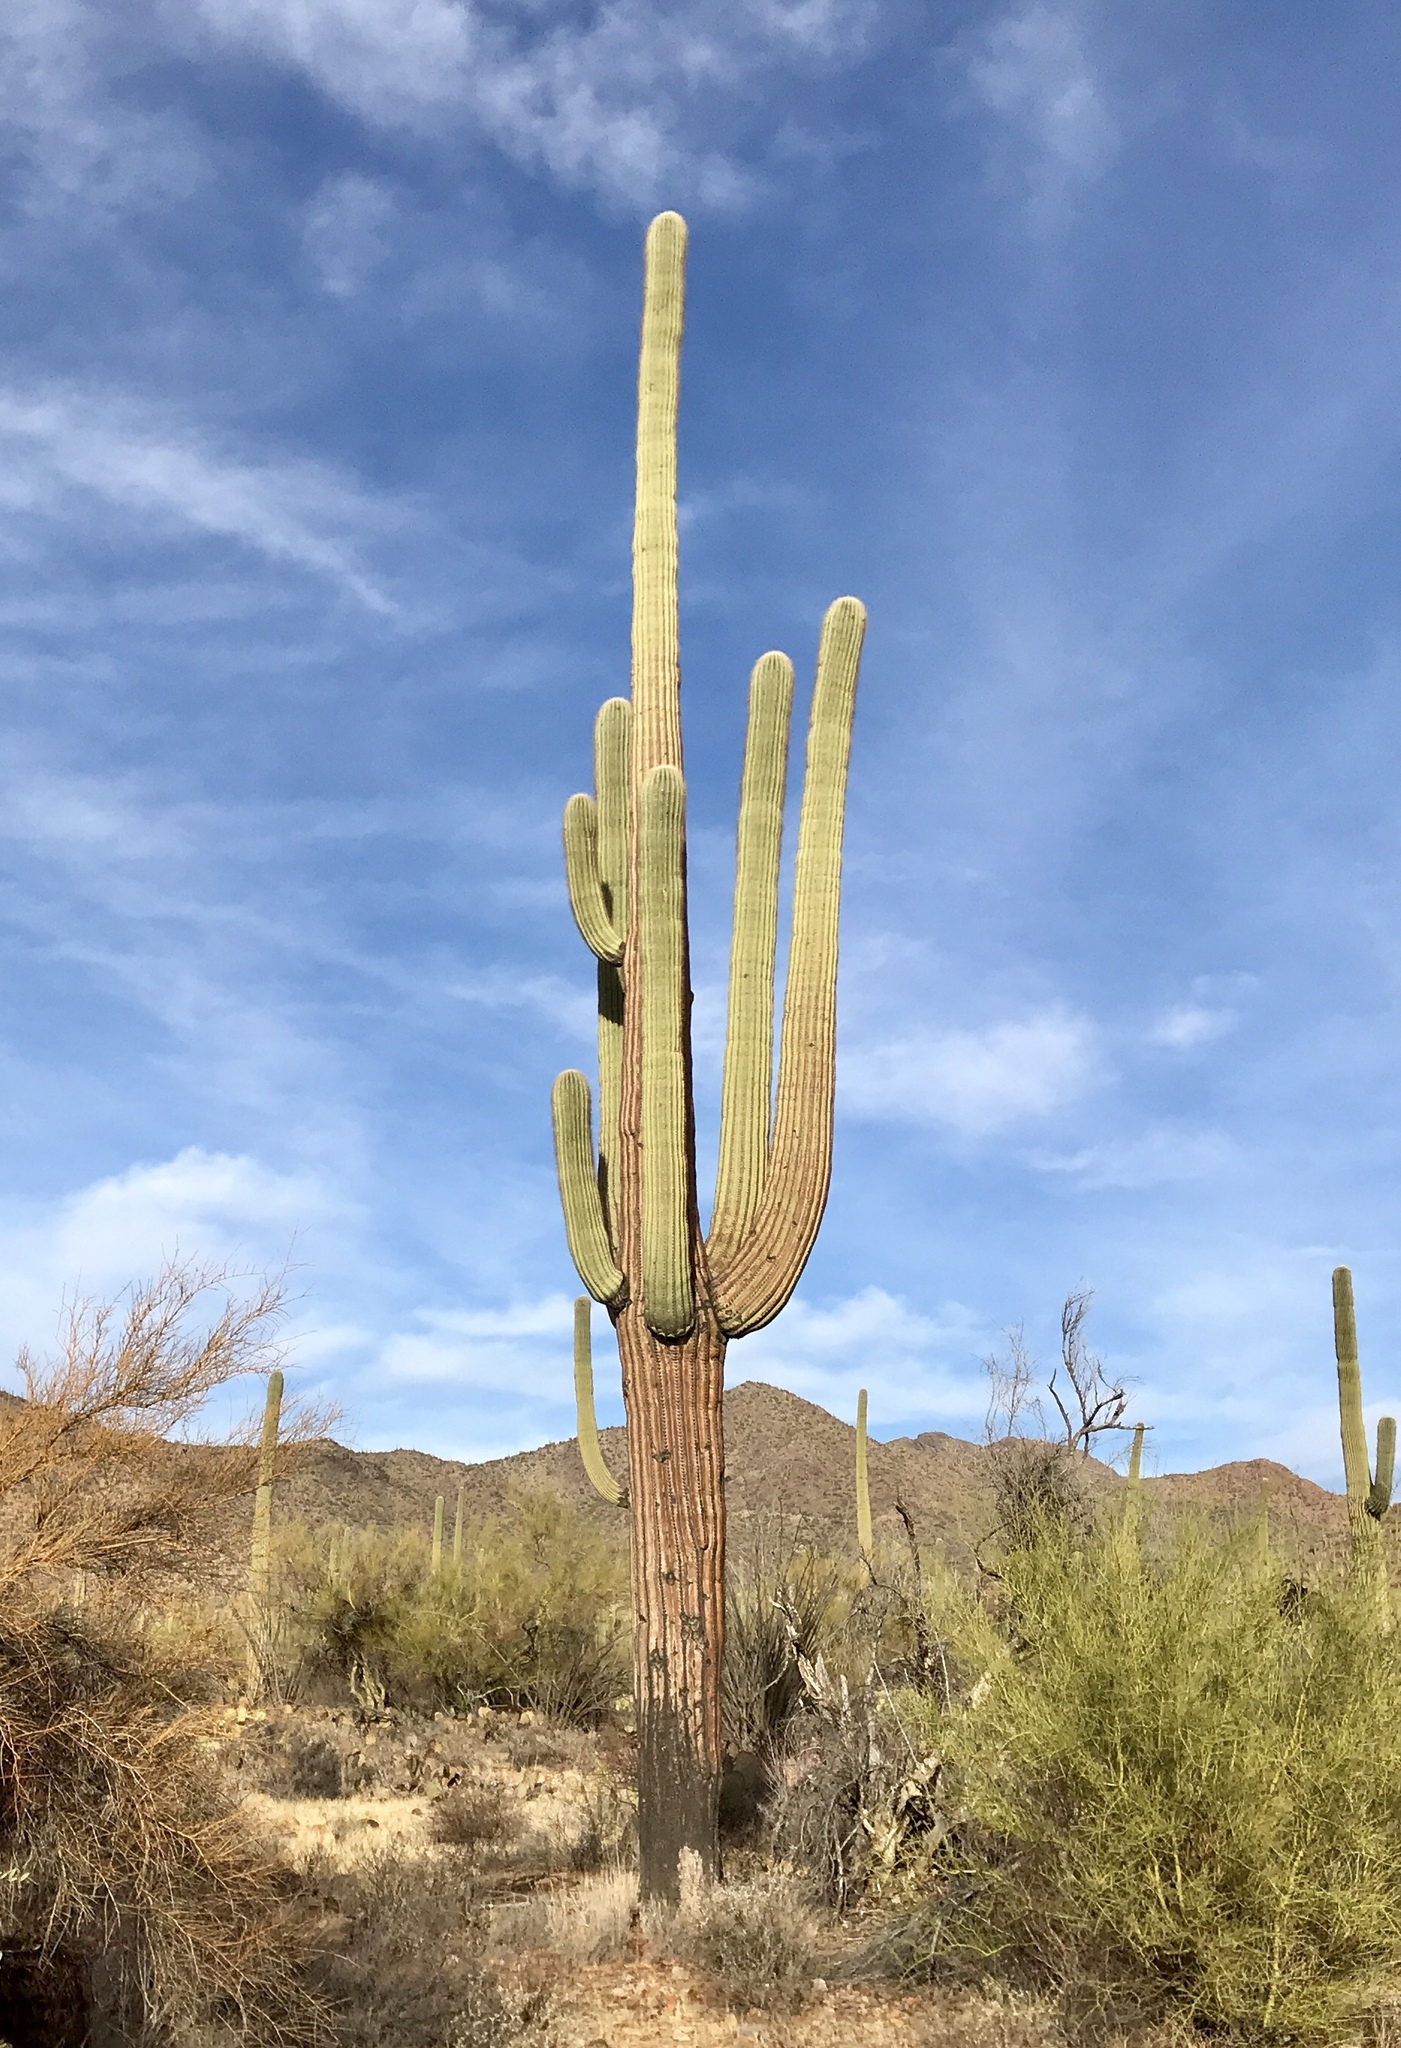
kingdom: Plantae
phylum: Tracheophyta
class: Magnoliopsida
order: Caryophyllales
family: Cactaceae
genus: Carnegiea
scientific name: Carnegiea gigantea
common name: Saguaro
